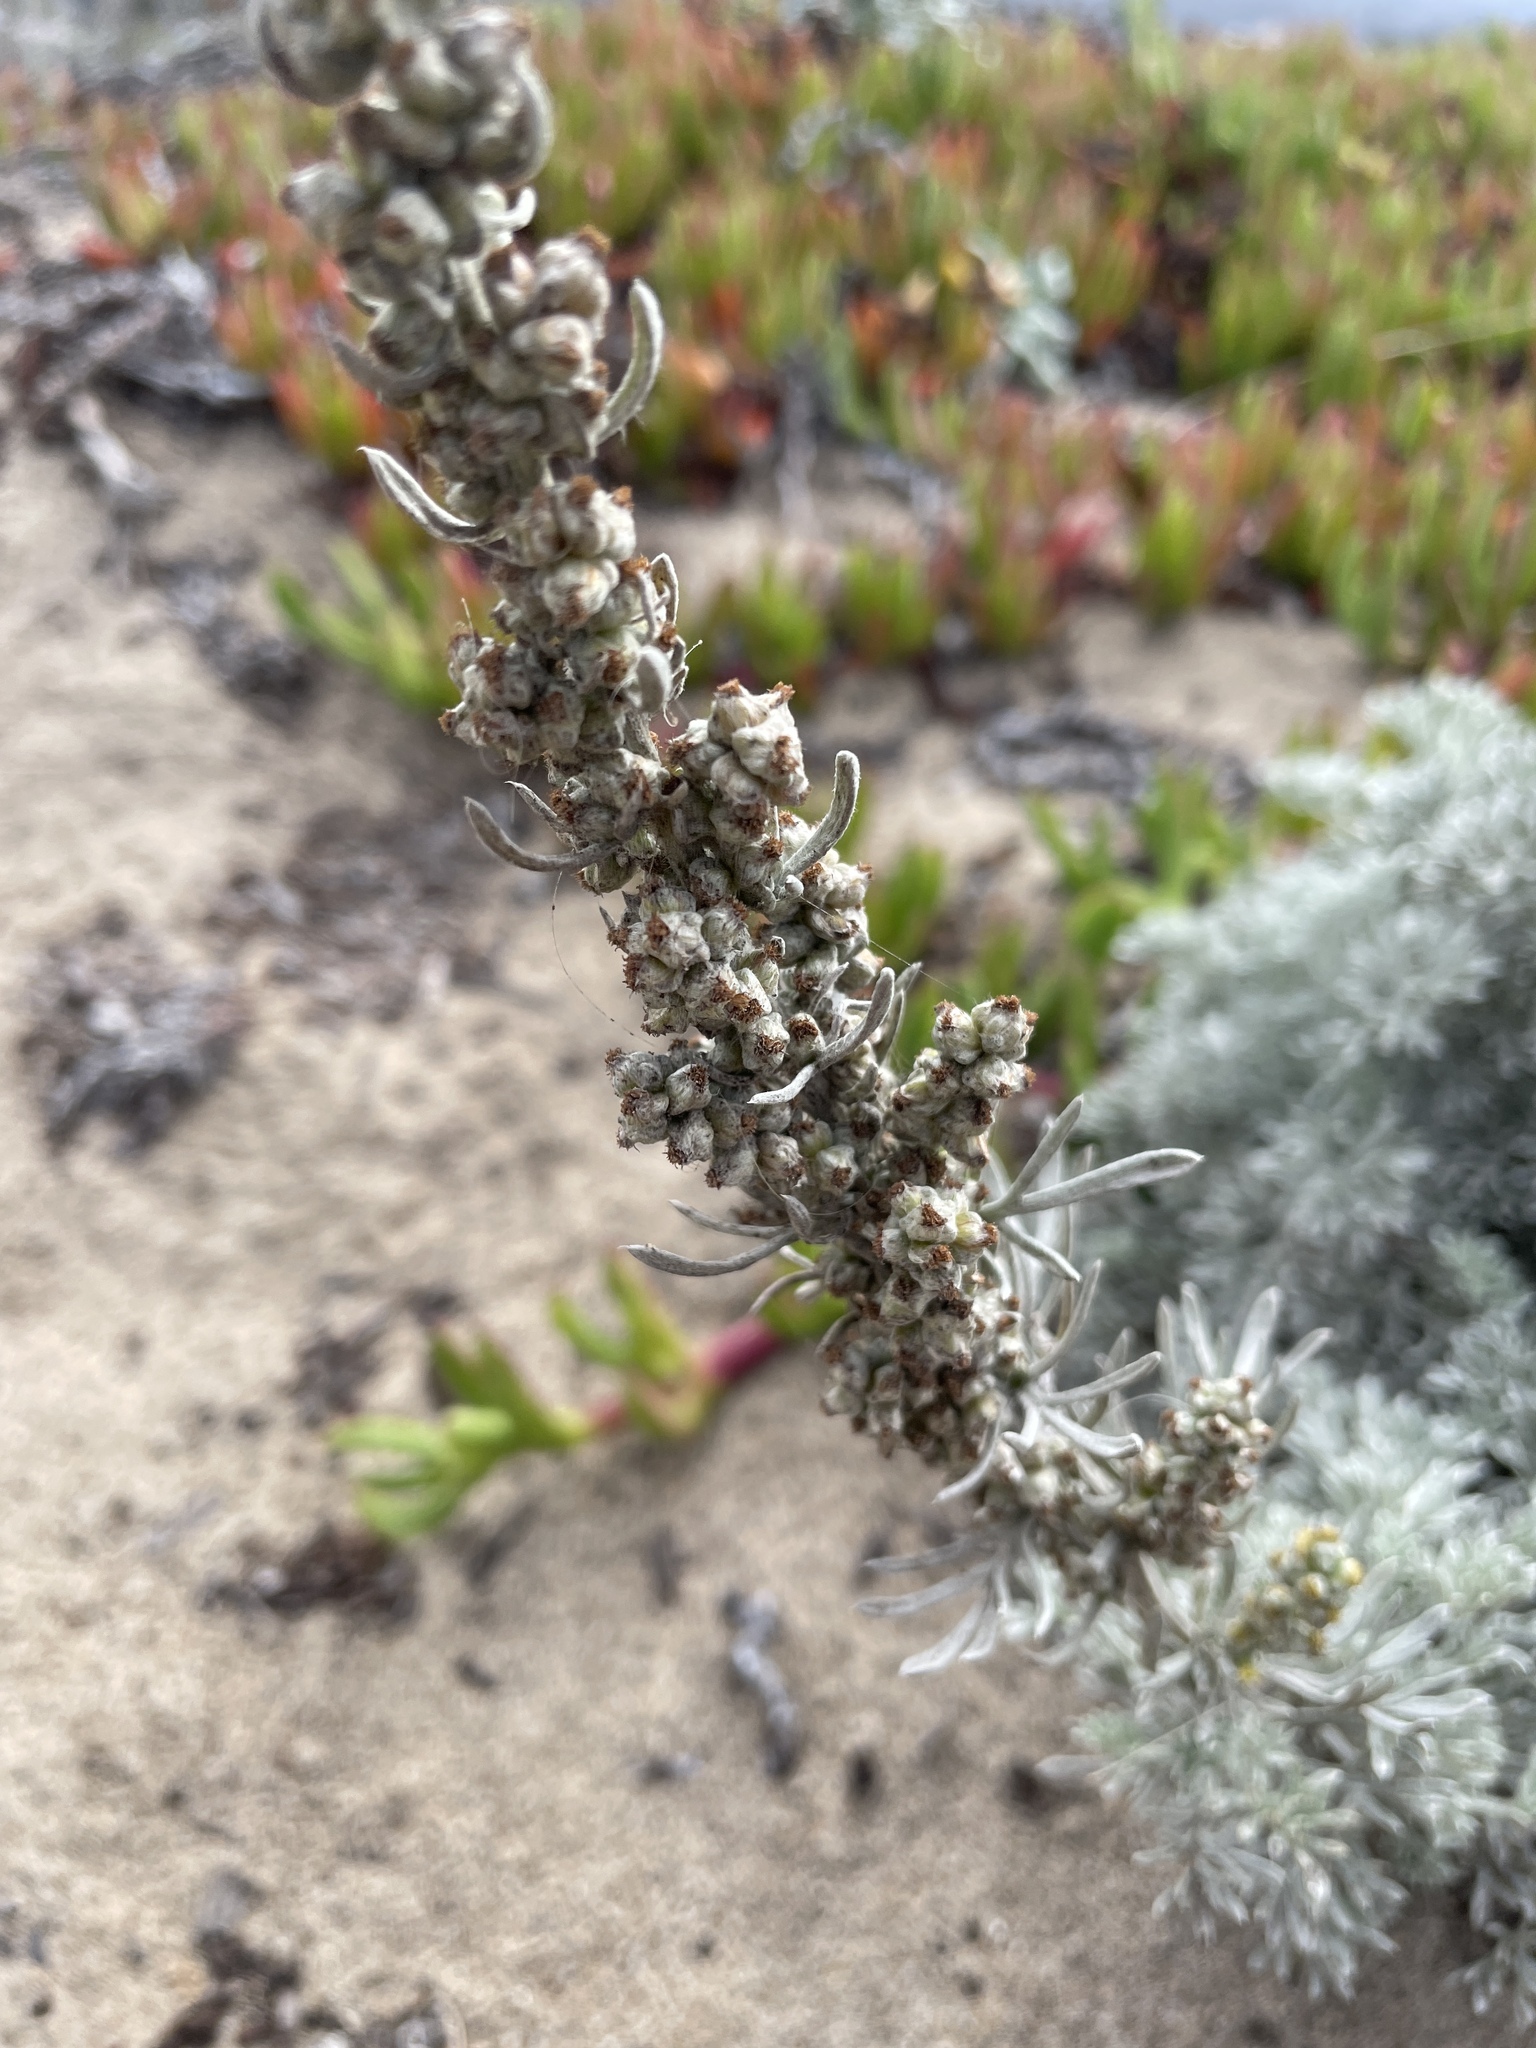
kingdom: Plantae
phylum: Tracheophyta
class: Magnoliopsida
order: Asterales
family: Asteraceae
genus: Artemisia
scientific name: Artemisia pycnocephala
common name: Coastal sagewort
